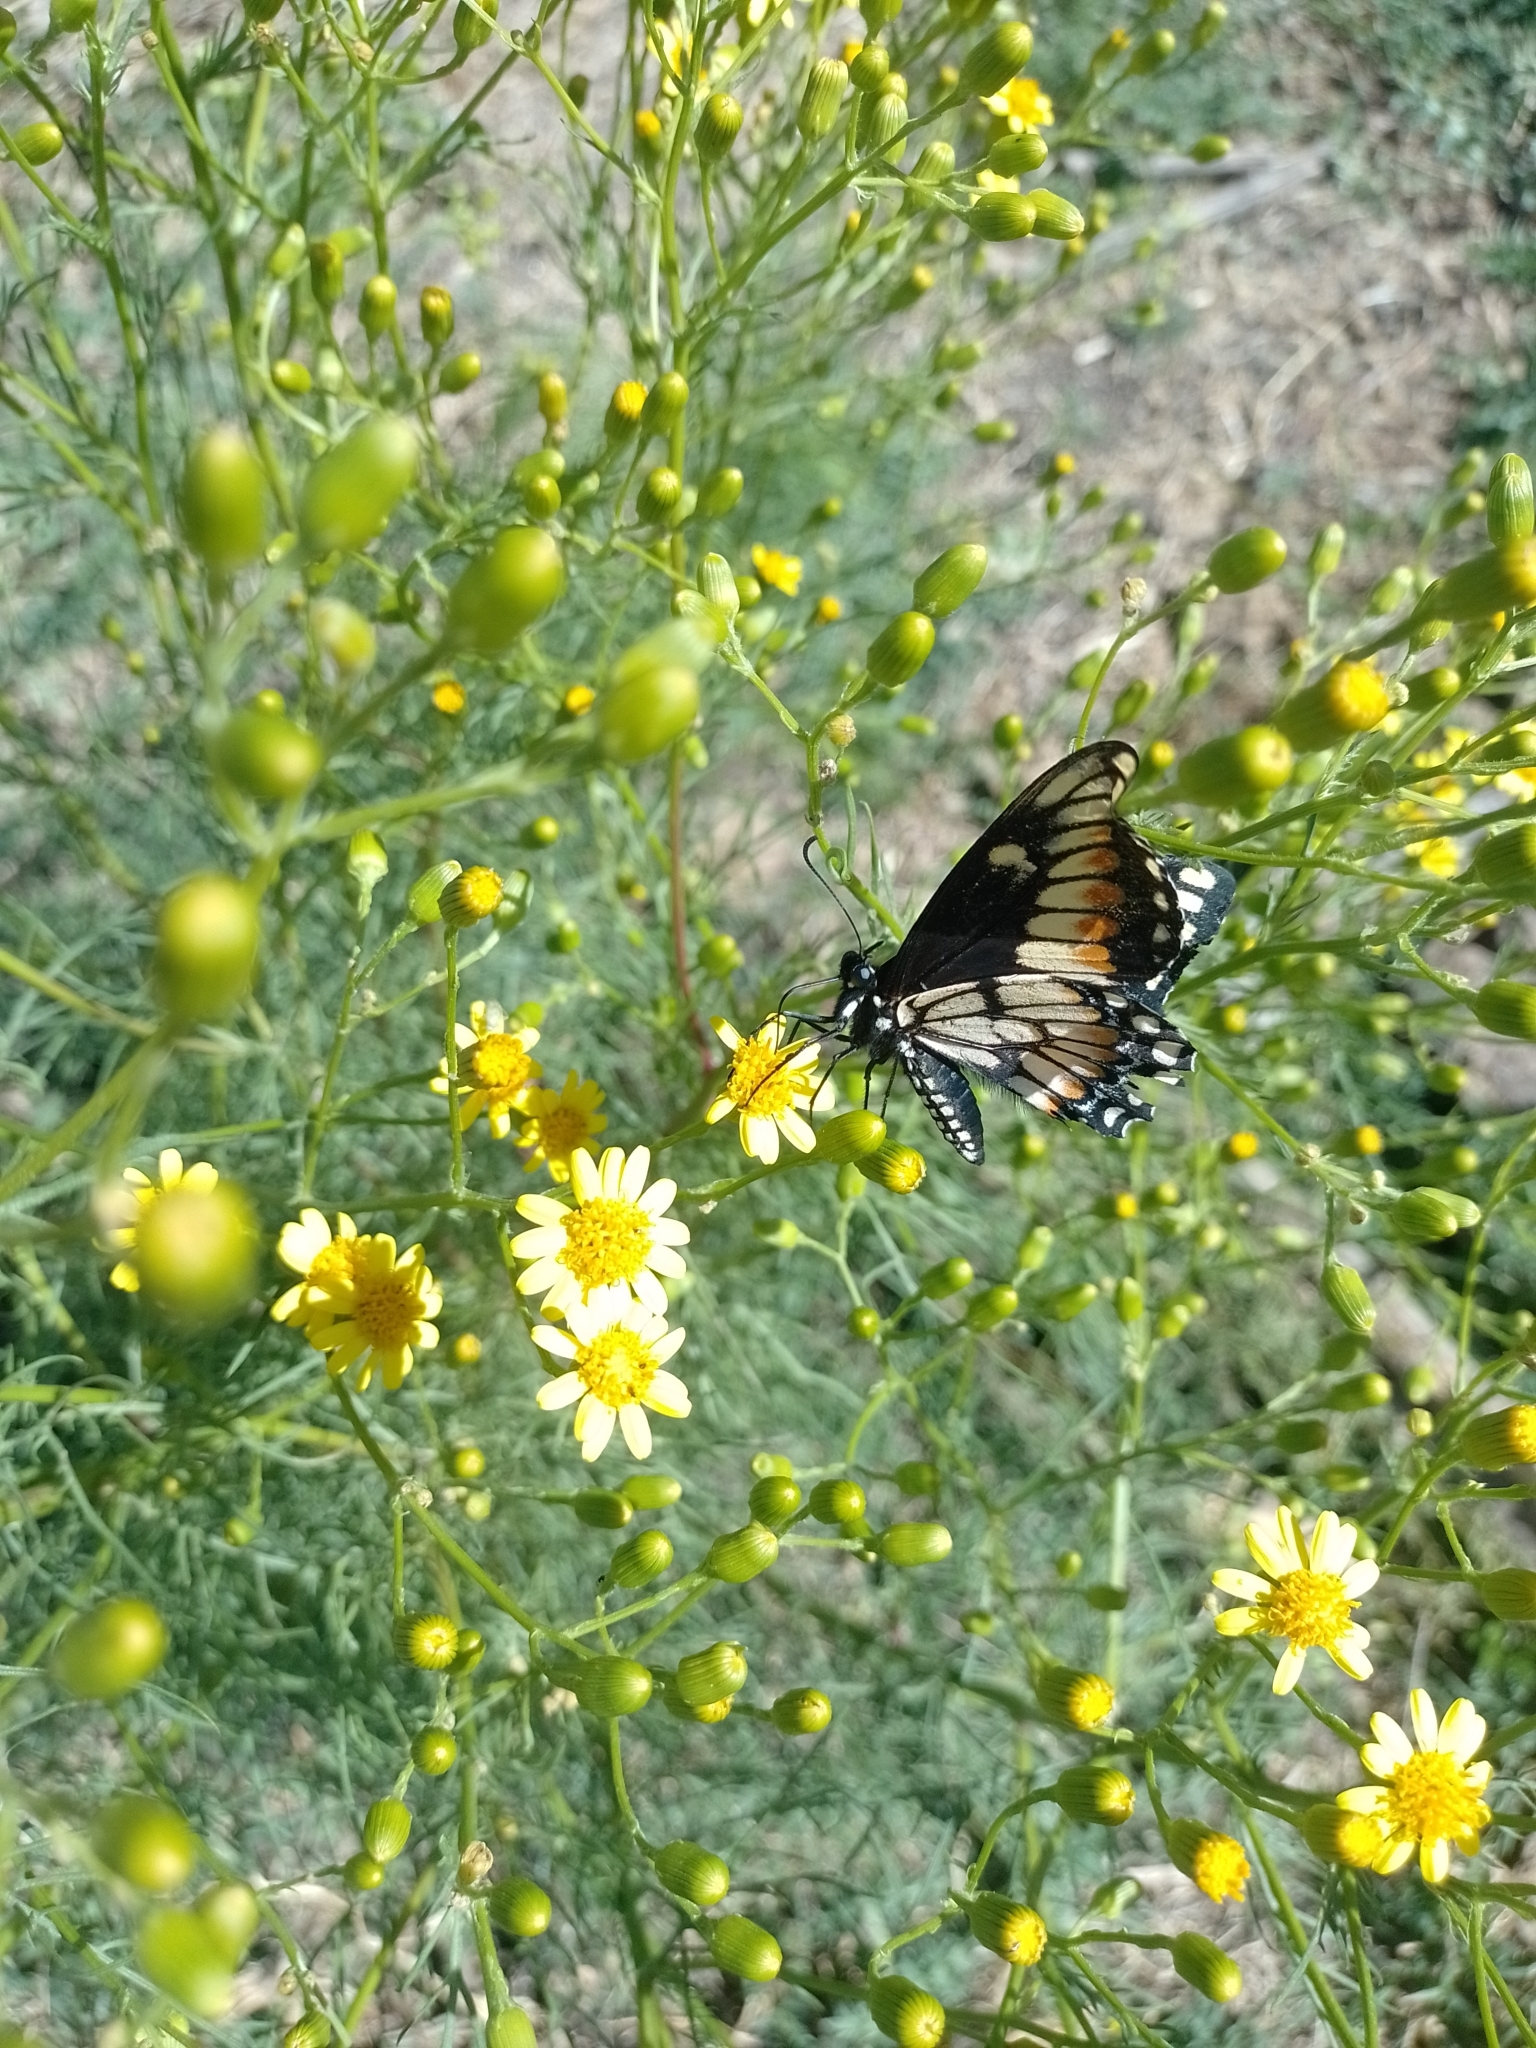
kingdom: Animalia
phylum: Arthropoda
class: Insecta
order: Lepidoptera
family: Papilionidae
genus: Papilio
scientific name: Papilio hellanichus
